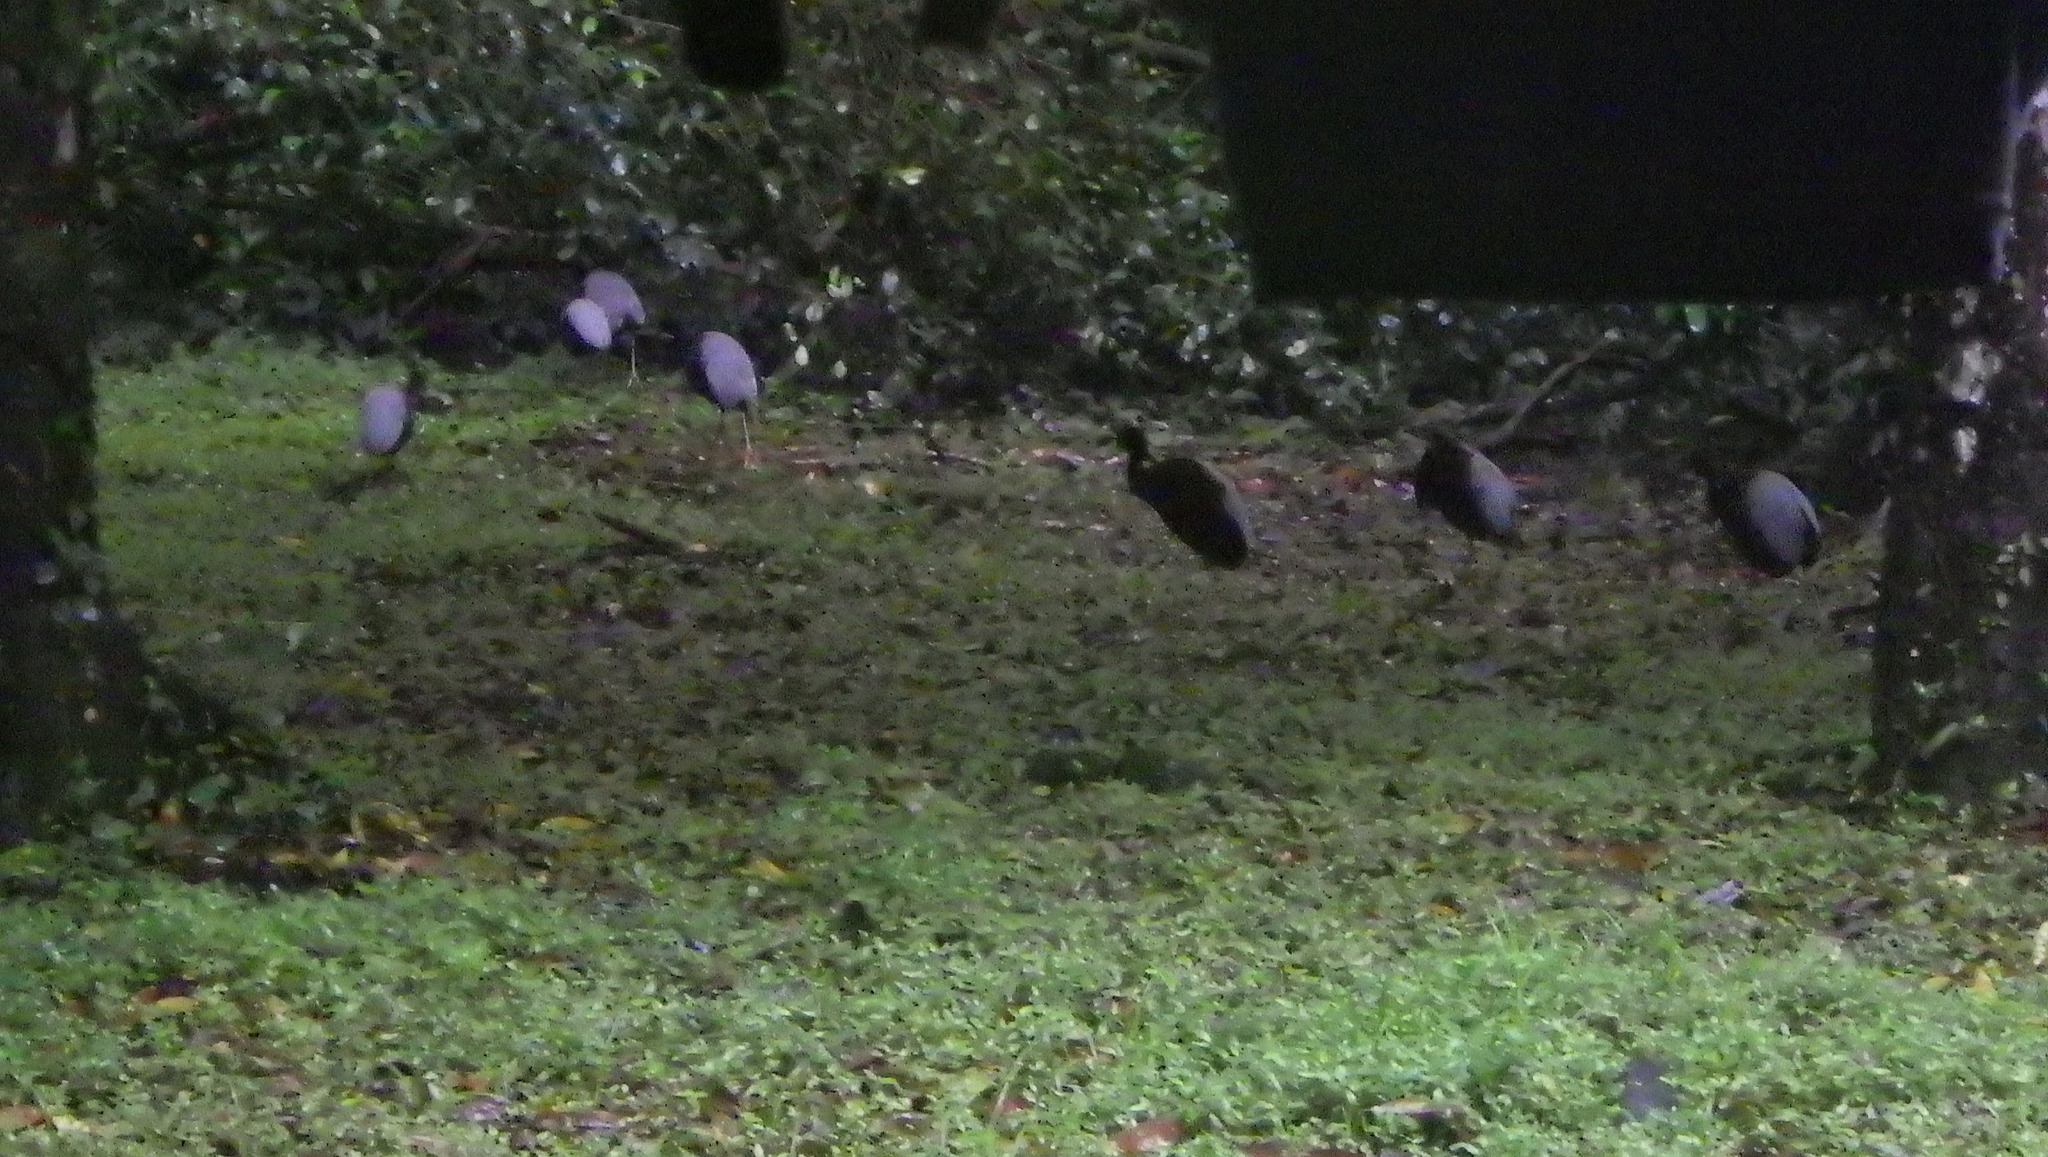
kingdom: Animalia
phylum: Chordata
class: Aves
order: Gruiformes
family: Psophiidae
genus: Psophia
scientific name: Psophia crepitans
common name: Grey-winged trumpeter
